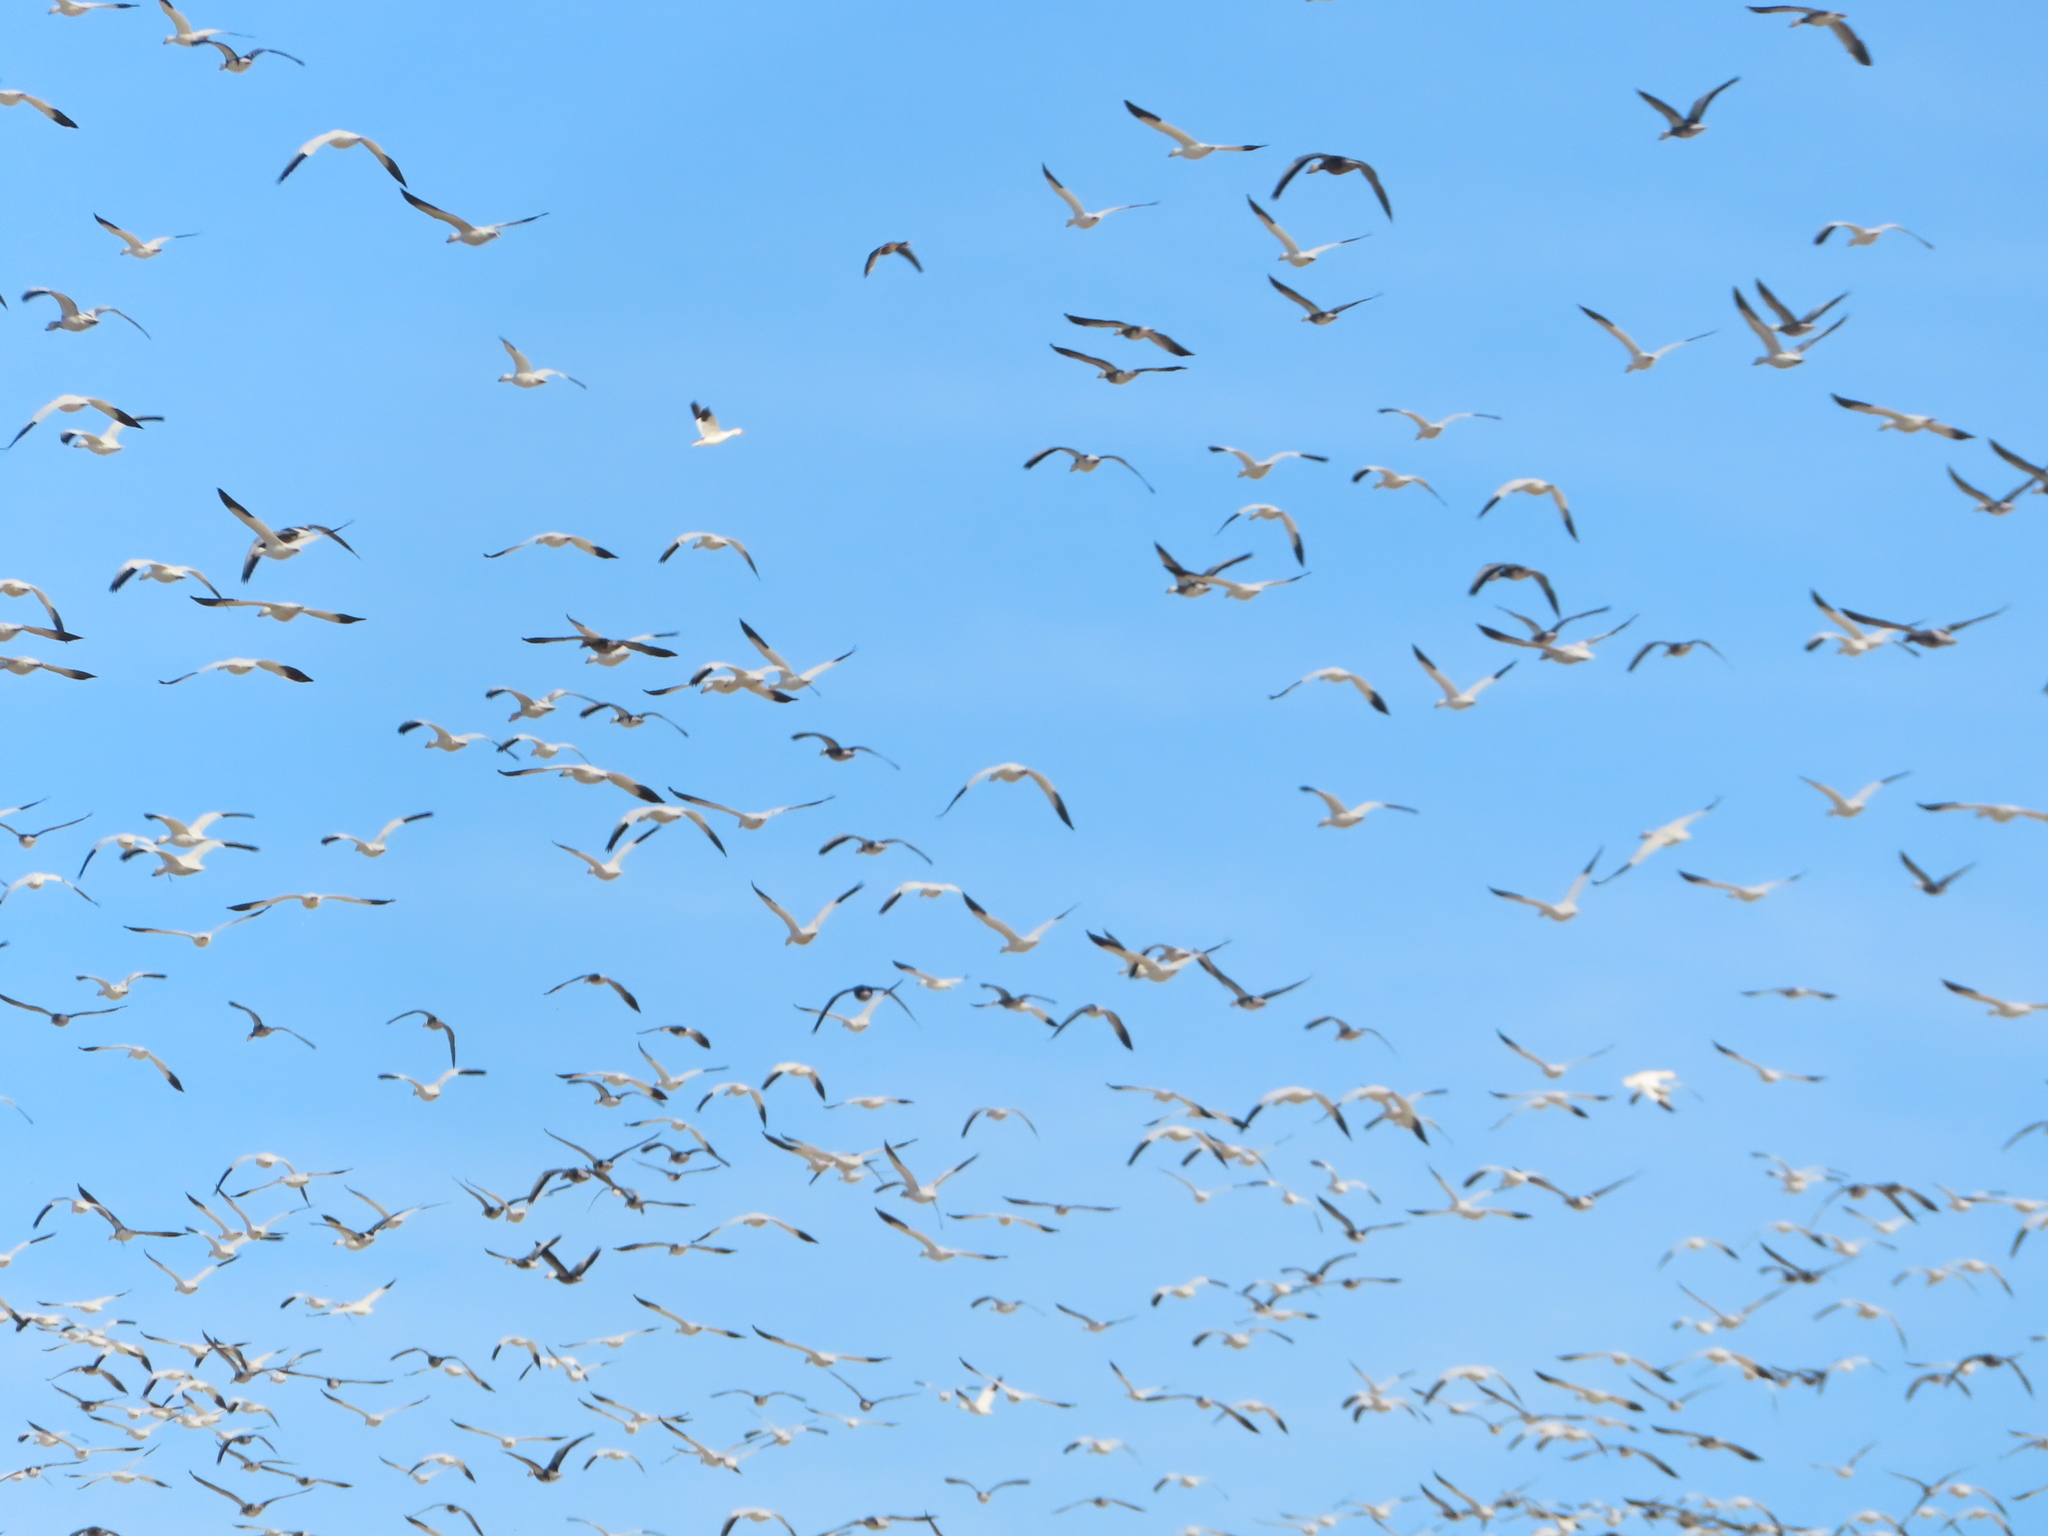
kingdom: Animalia
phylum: Chordata
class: Aves
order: Anseriformes
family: Anatidae
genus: Anser
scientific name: Anser caerulescens
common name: Snow goose
